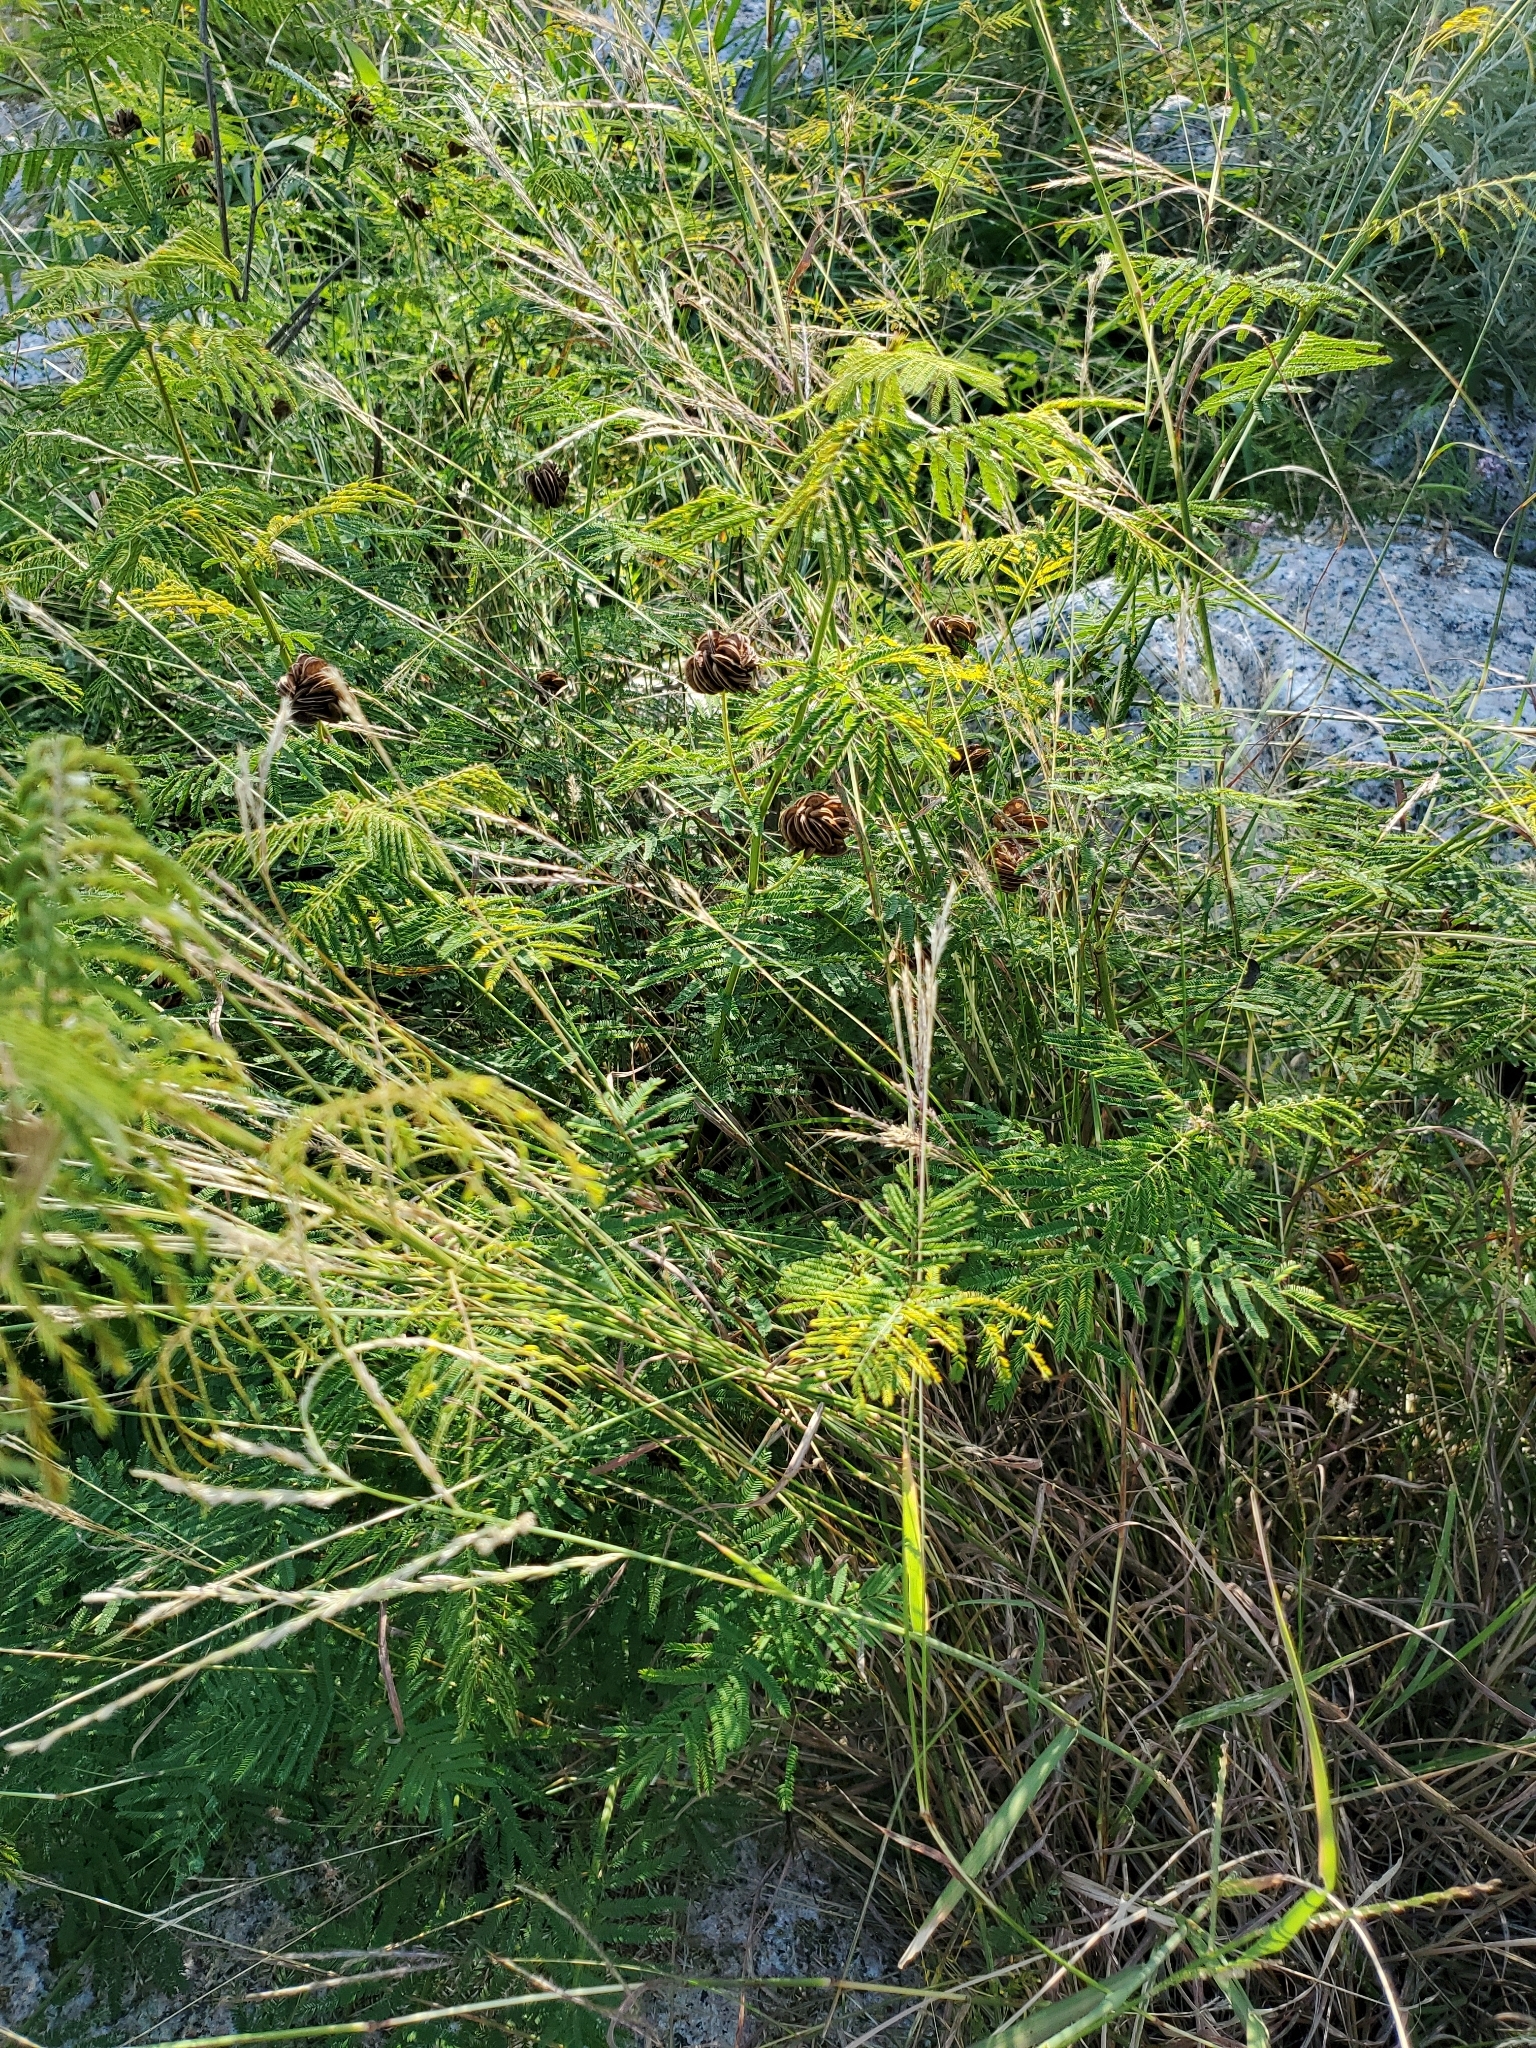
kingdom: Plantae
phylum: Tracheophyta
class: Magnoliopsida
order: Fabales
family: Fabaceae
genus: Desmanthus
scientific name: Desmanthus illinoensis
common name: Illinois bundle-flower
